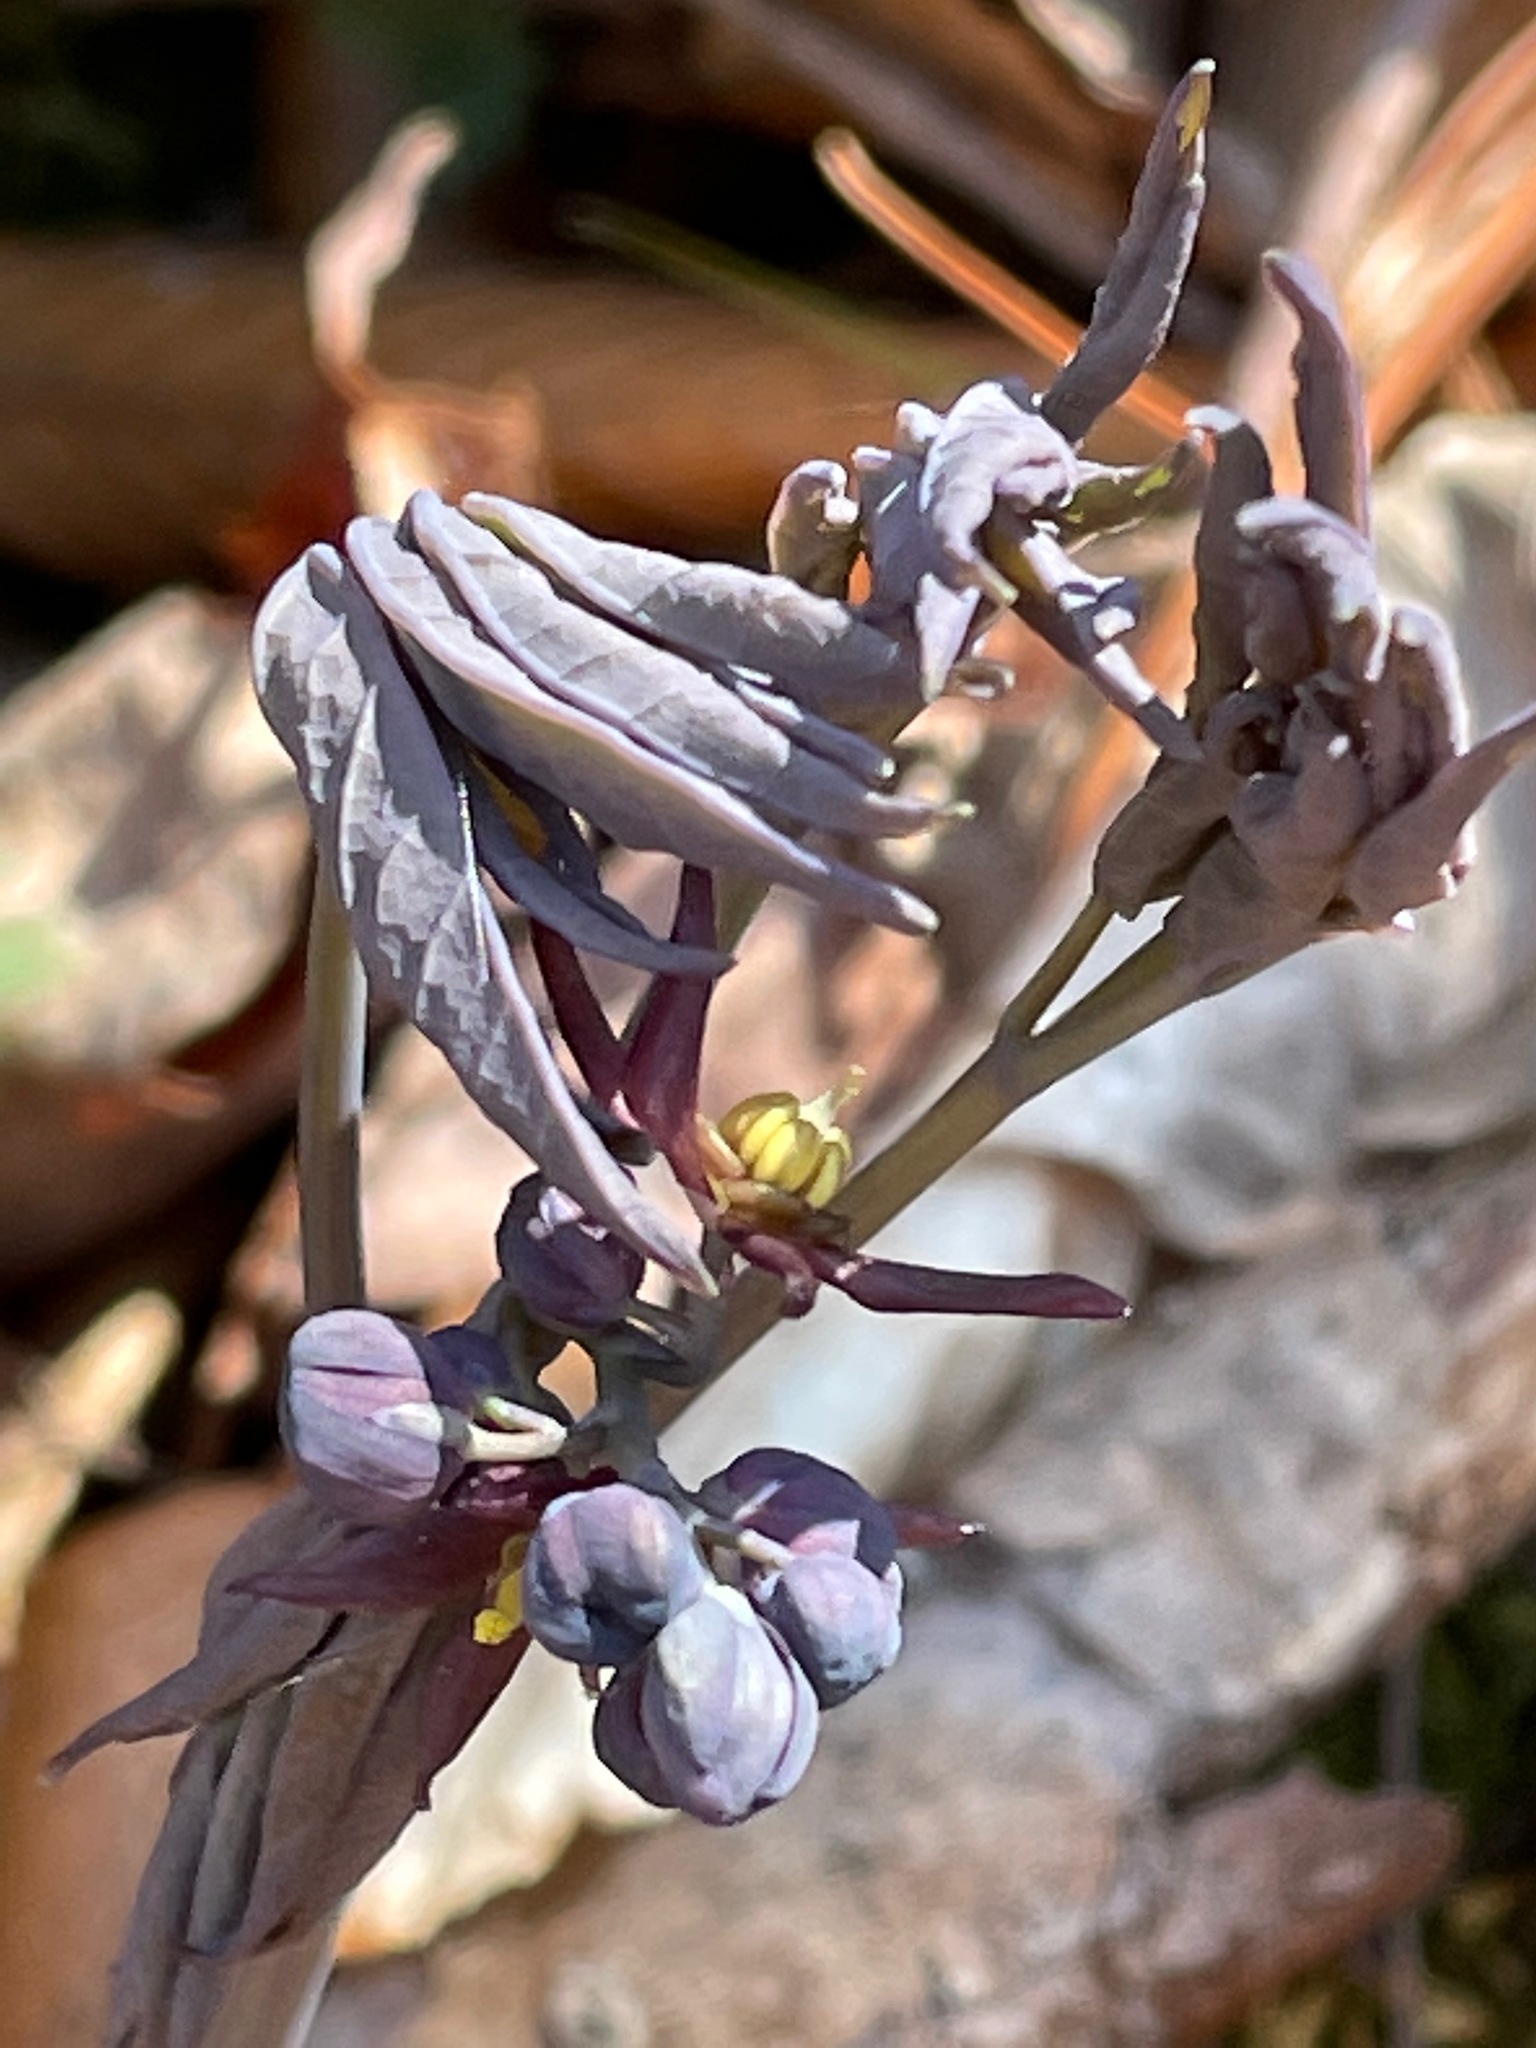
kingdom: Plantae
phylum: Tracheophyta
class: Magnoliopsida
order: Ranunculales
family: Berberidaceae
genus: Caulophyllum
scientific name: Caulophyllum giganteum
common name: Blue cohosh
